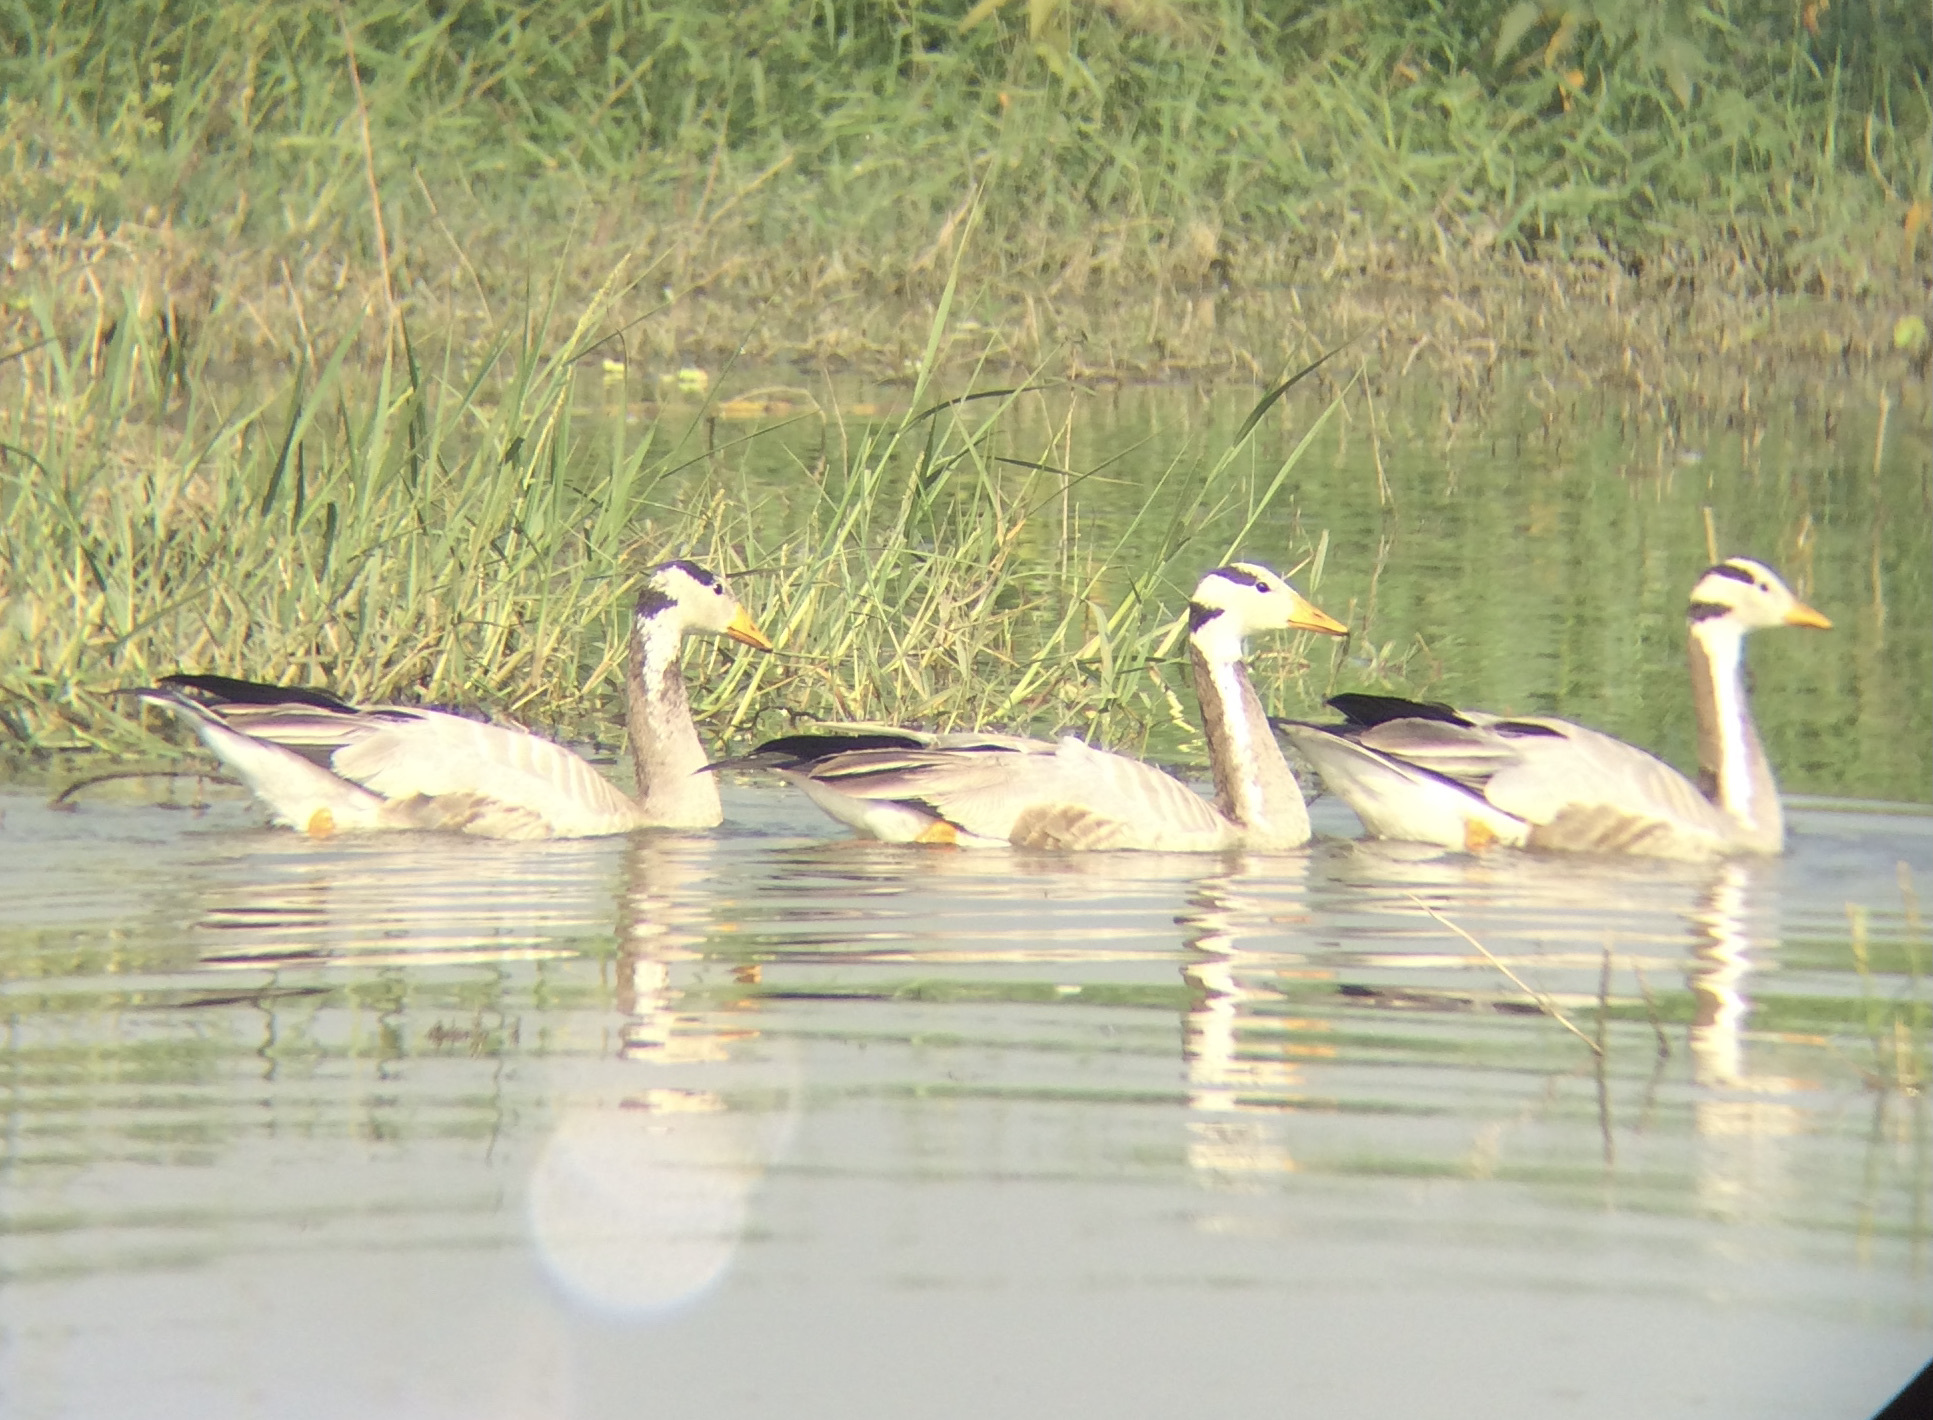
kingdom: Animalia
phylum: Chordata
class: Aves
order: Anseriformes
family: Anatidae
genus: Anser
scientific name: Anser indicus
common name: Bar-headed goose
